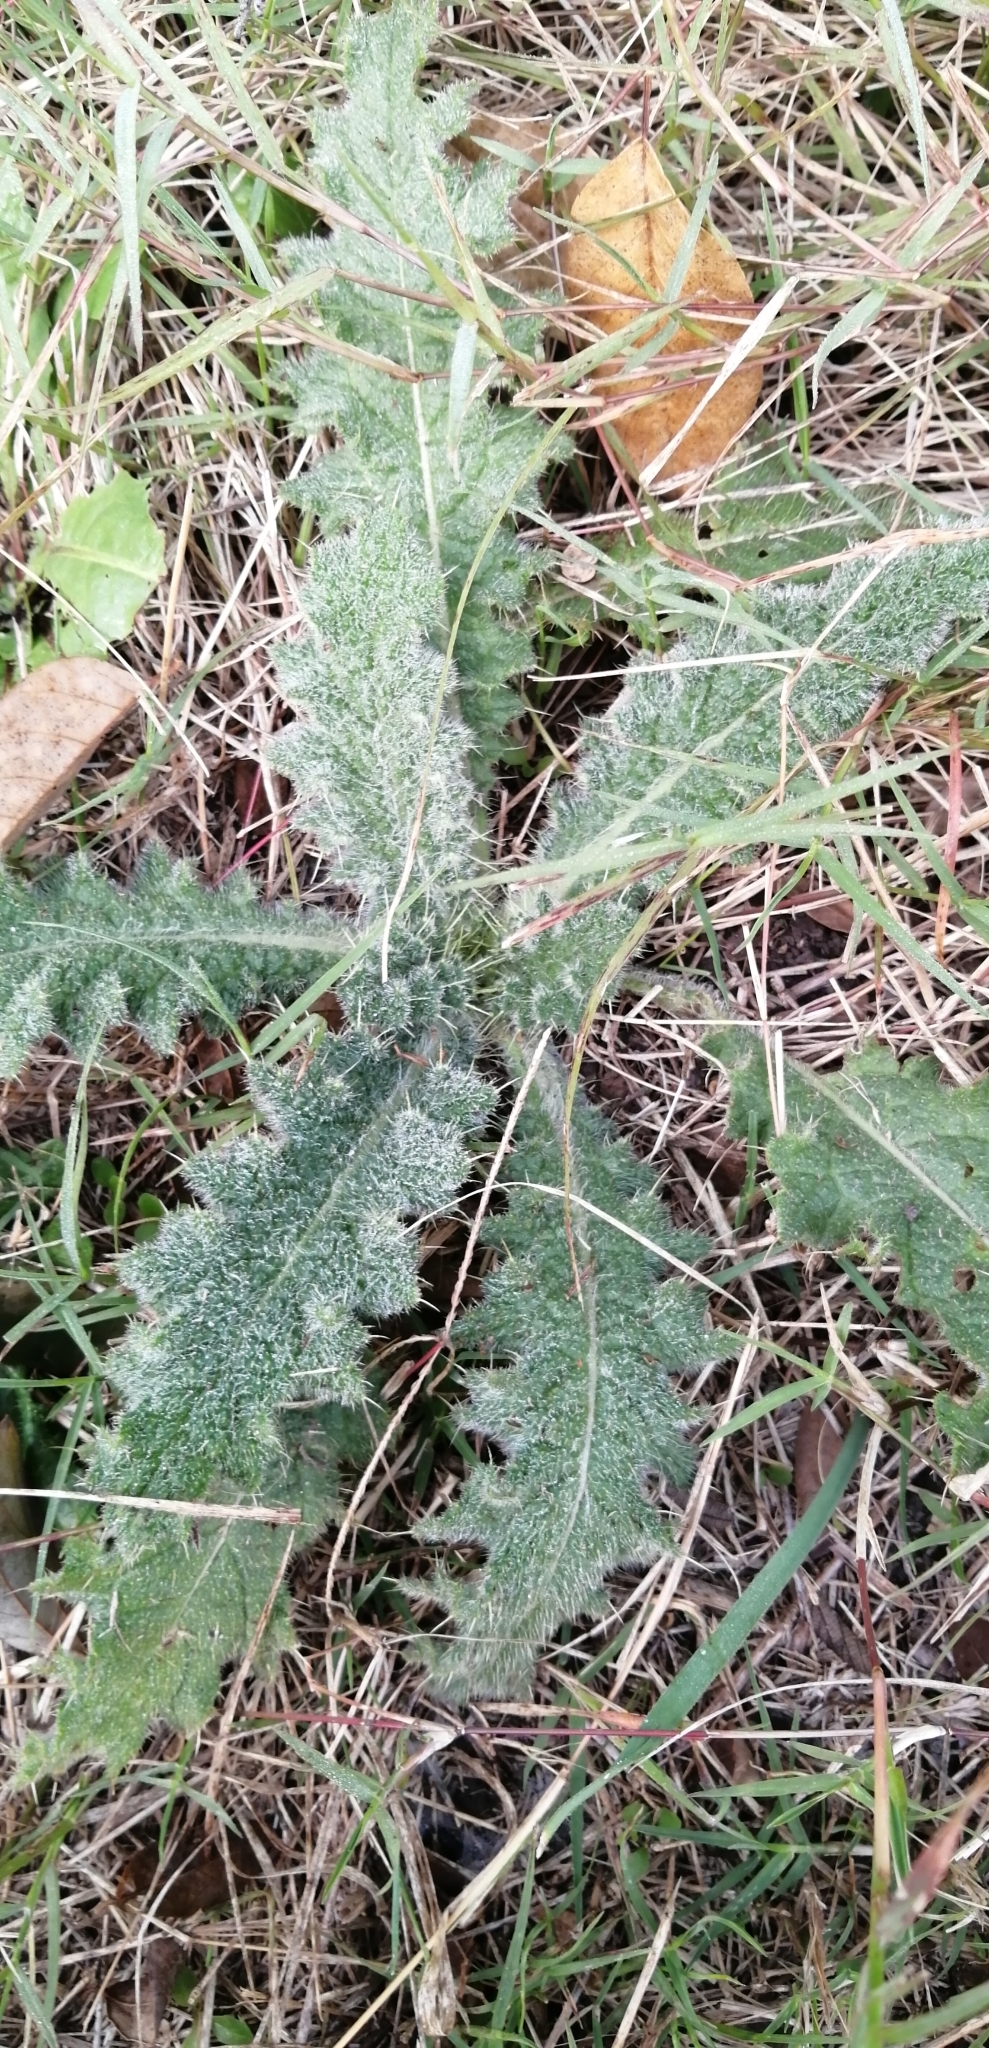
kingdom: Plantae
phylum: Tracheophyta
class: Magnoliopsida
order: Asterales
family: Asteraceae
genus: Cirsium
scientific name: Cirsium vulgare
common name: Bull thistle
